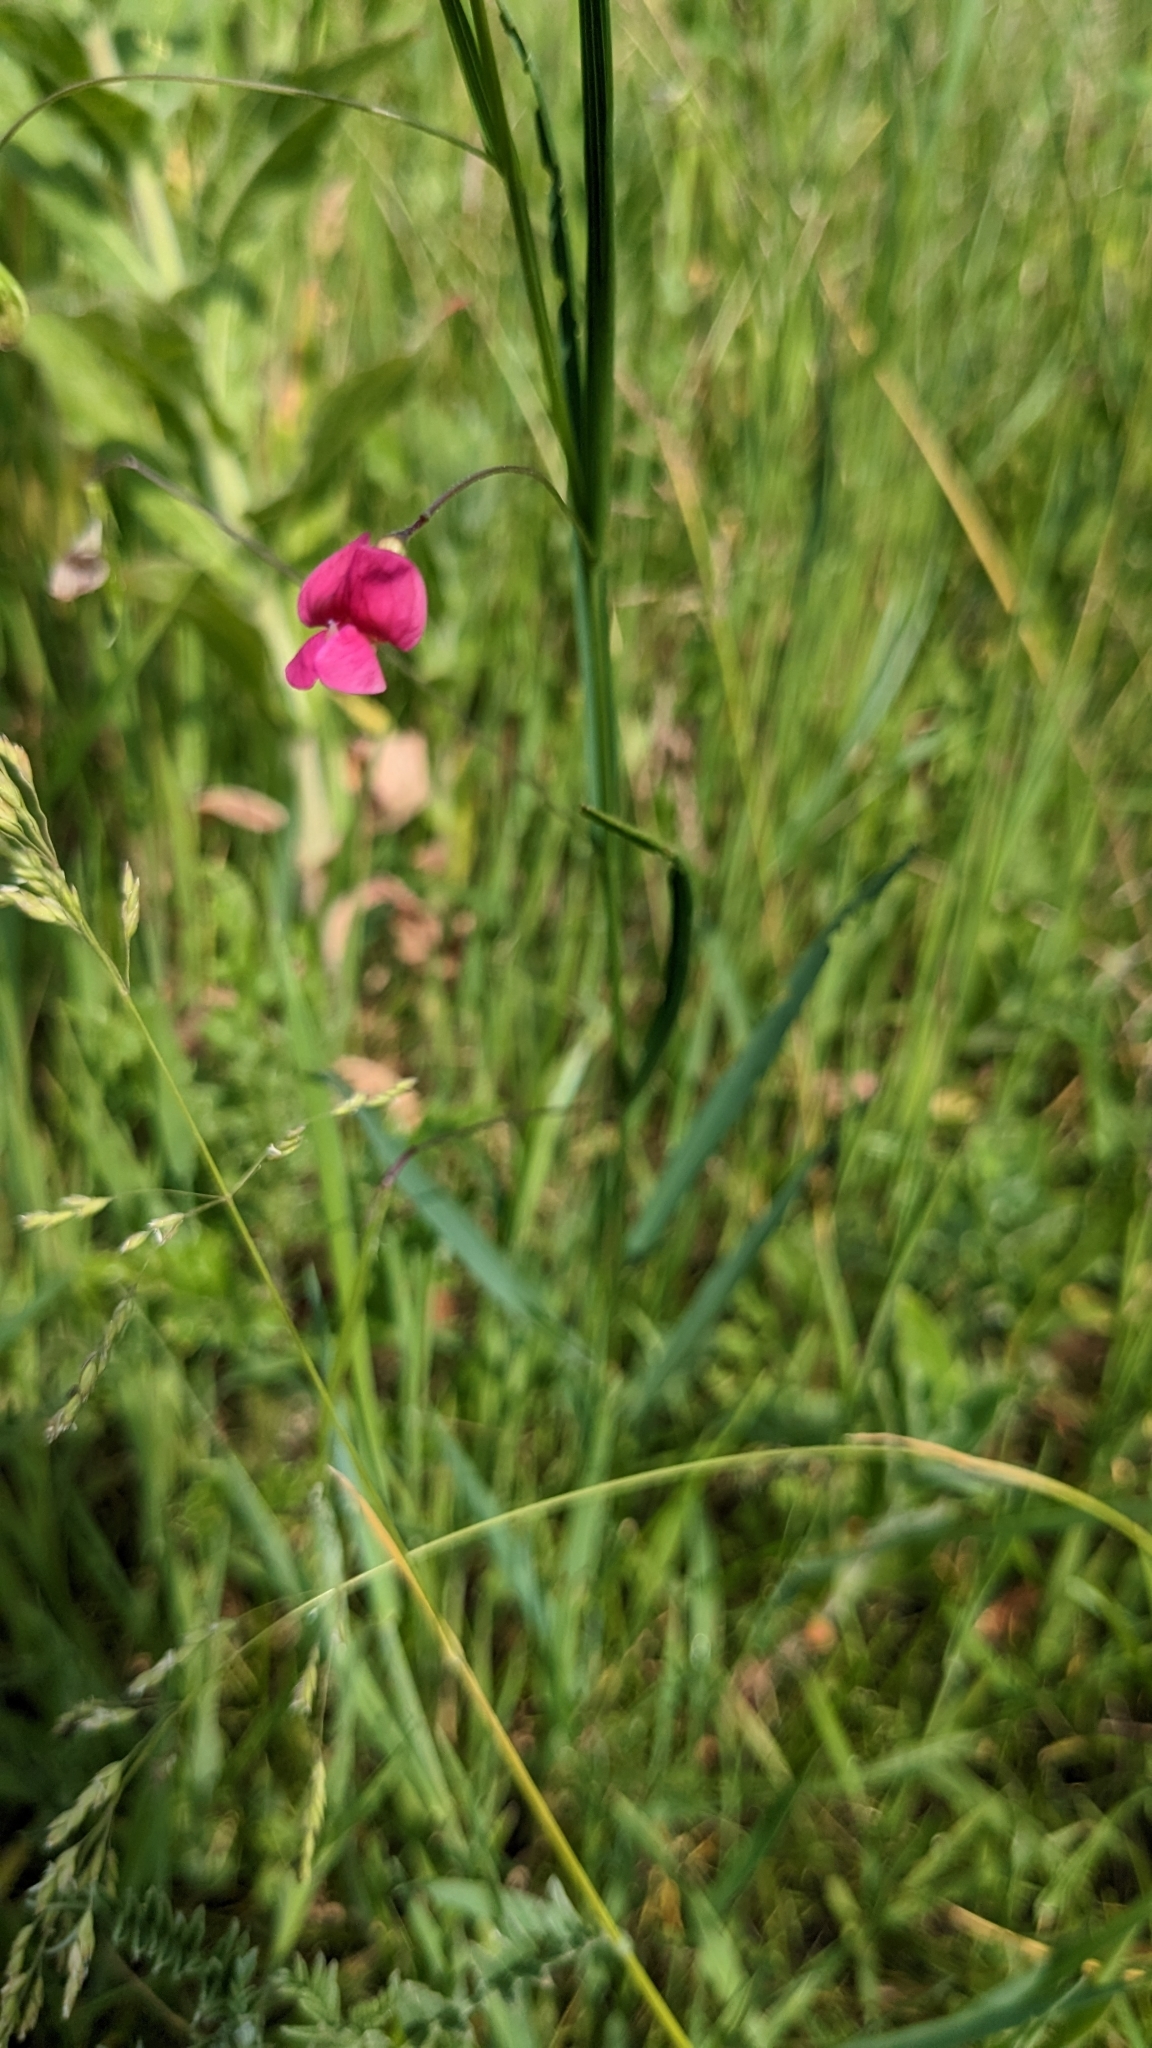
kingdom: Plantae
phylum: Tracheophyta
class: Magnoliopsida
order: Fabales
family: Fabaceae
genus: Lathyrus
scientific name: Lathyrus nissolia
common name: Grass vetchling
